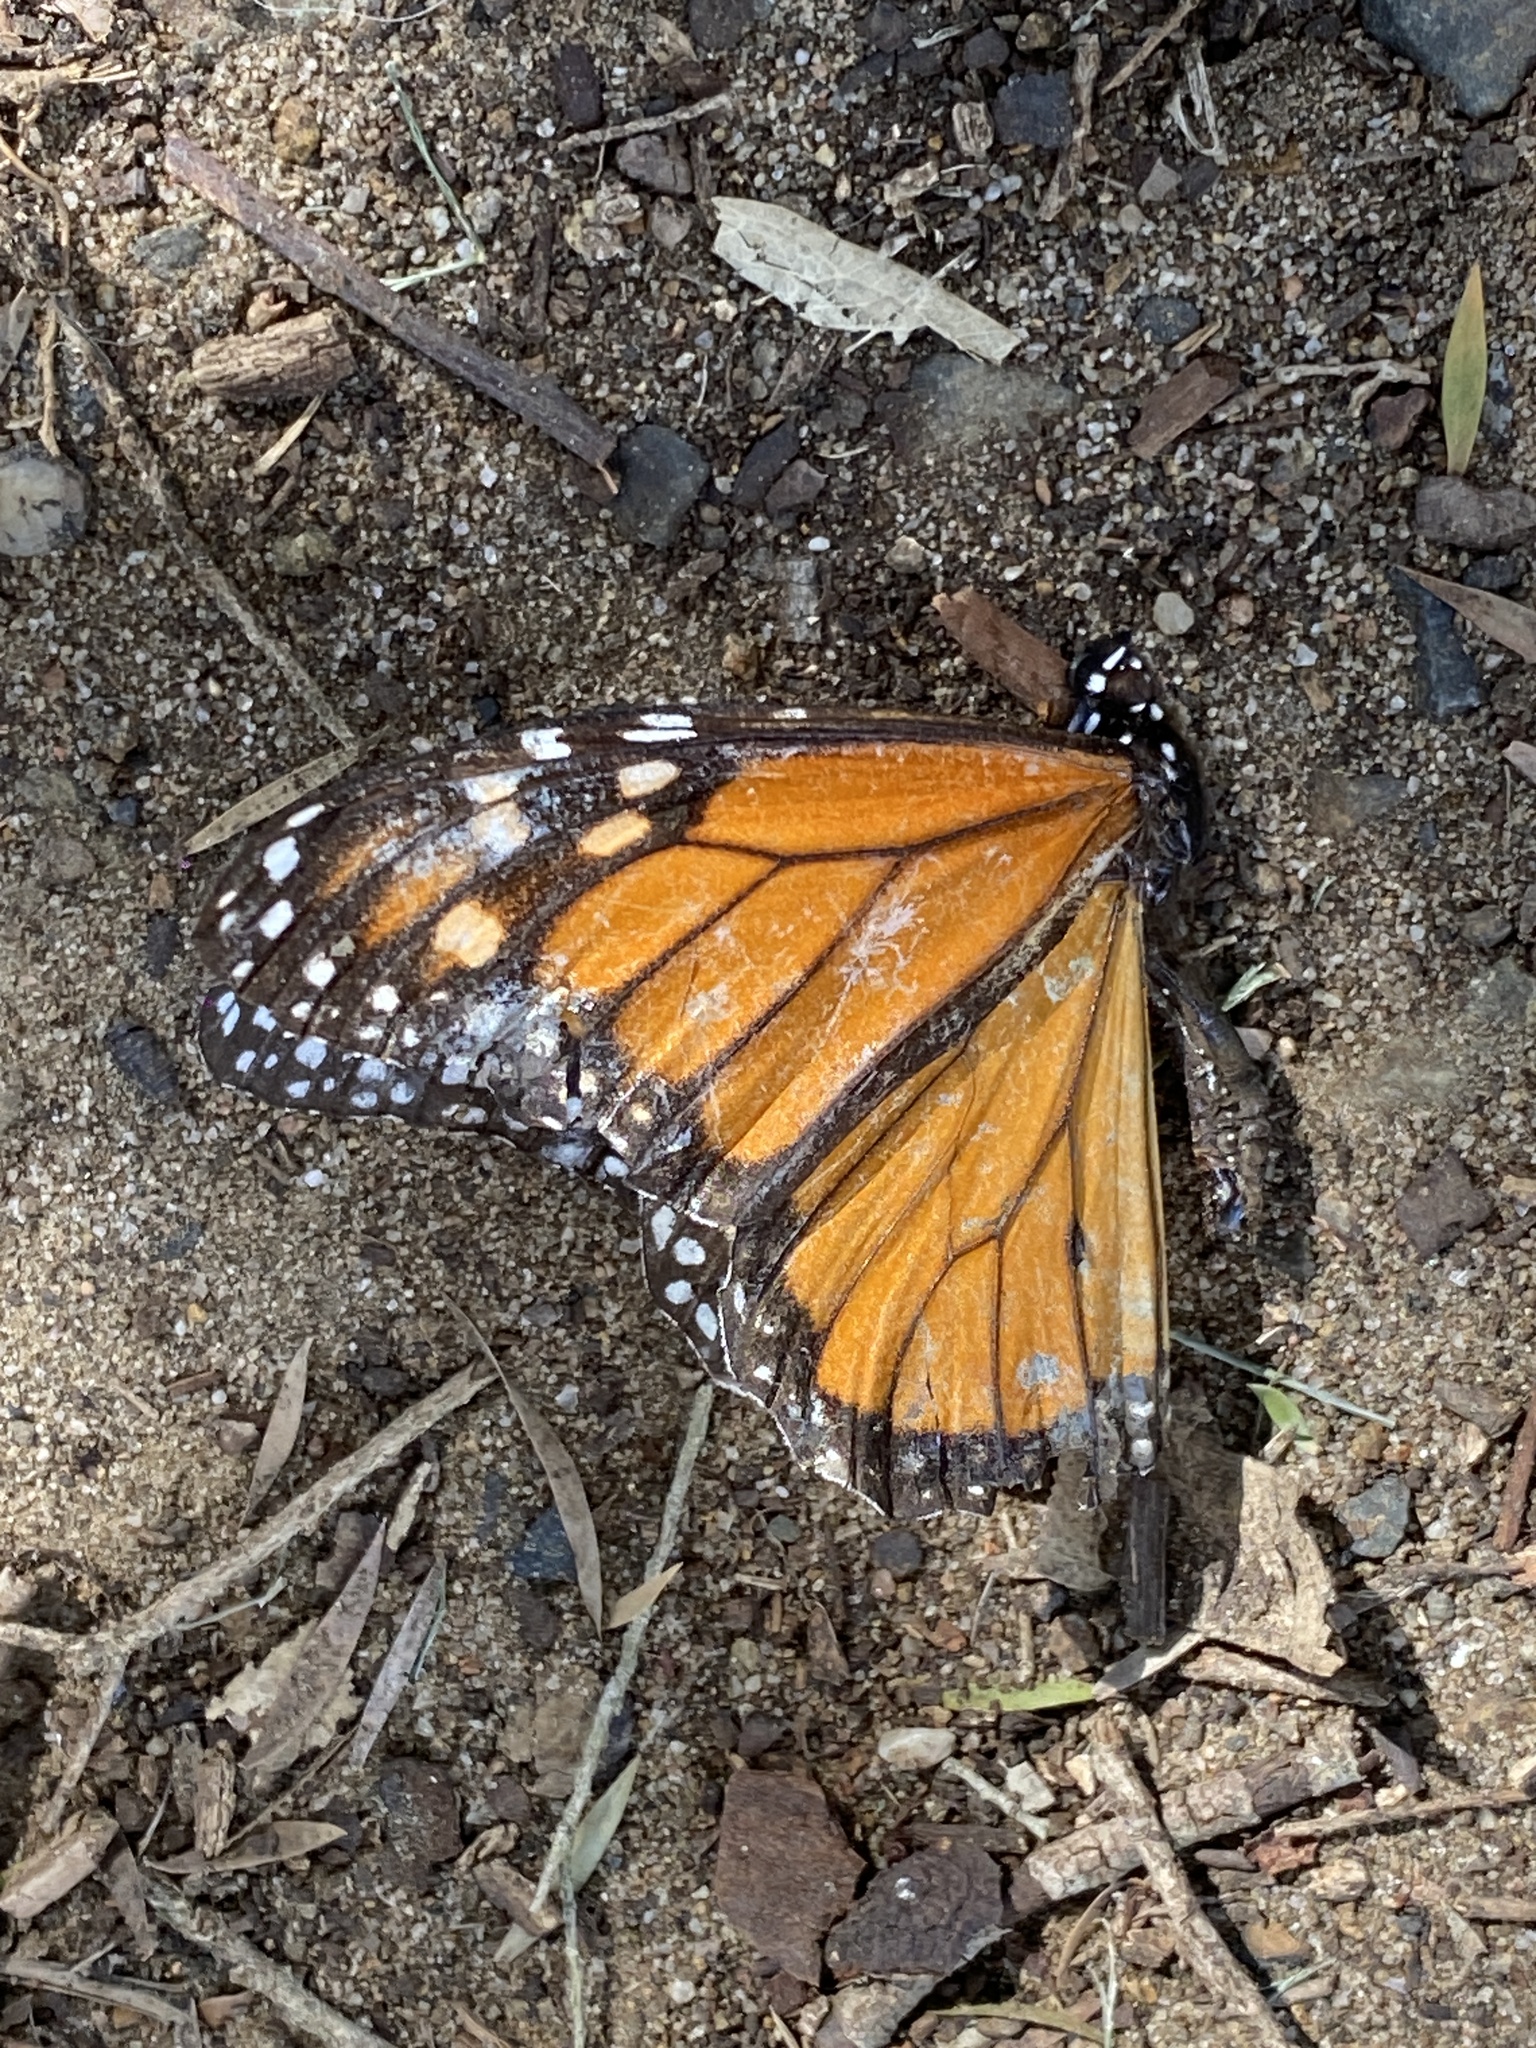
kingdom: Animalia
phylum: Arthropoda
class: Insecta
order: Lepidoptera
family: Nymphalidae
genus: Danaus
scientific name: Danaus plexippus
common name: Monarch
